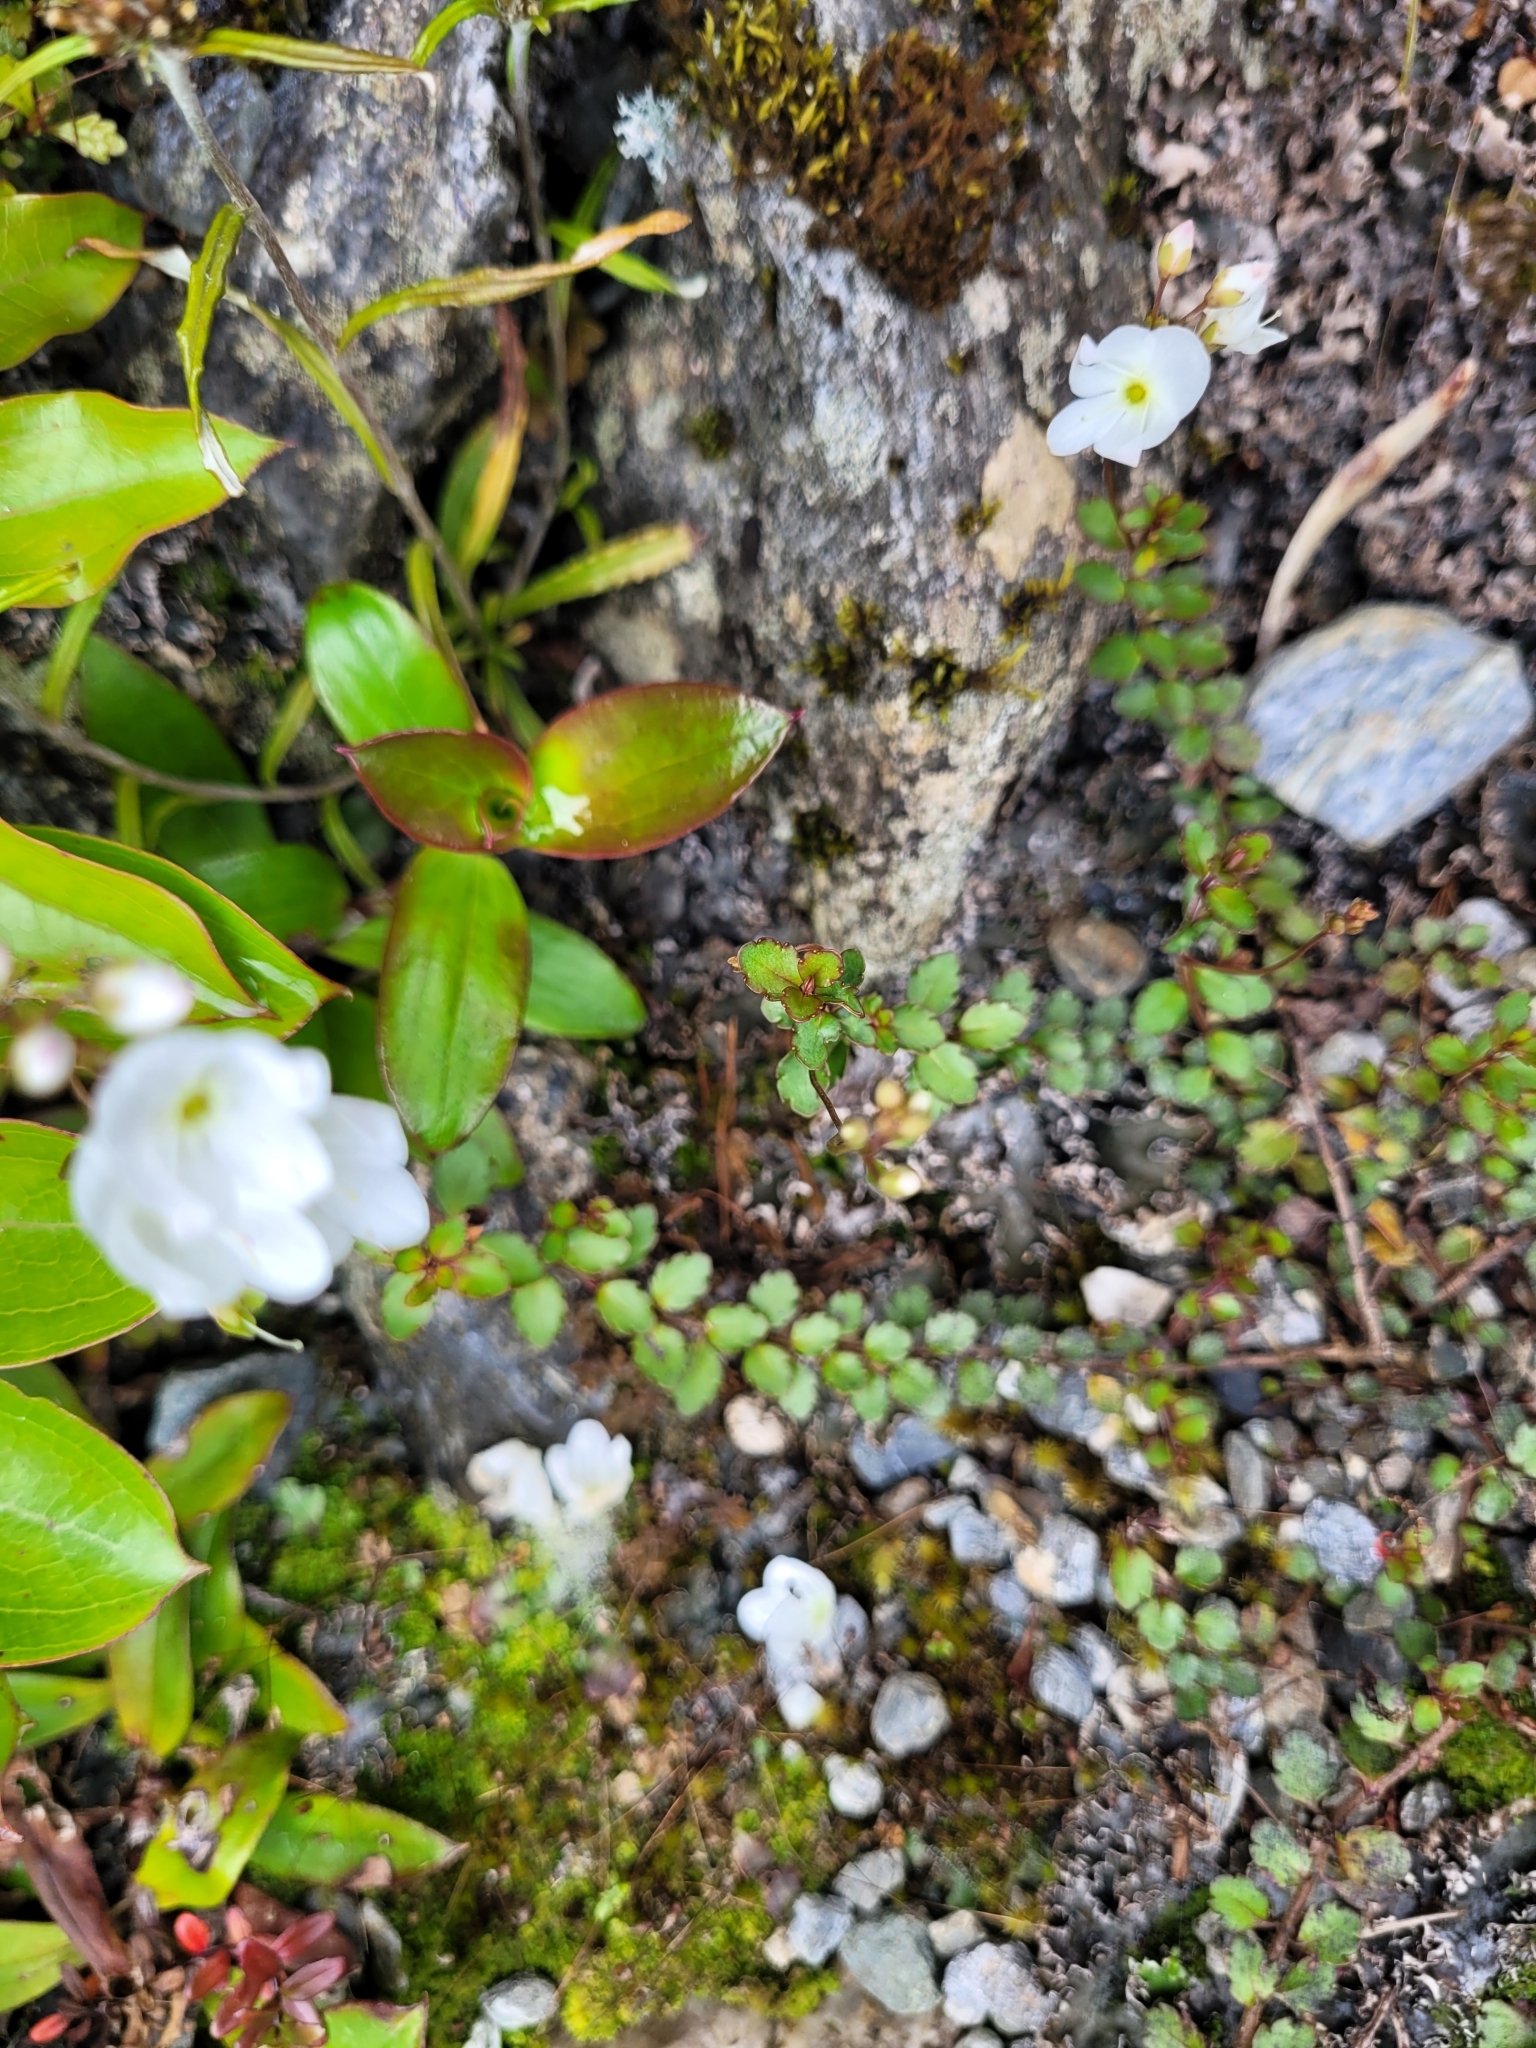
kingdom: Plantae
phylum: Tracheophyta
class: Magnoliopsida
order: Lamiales
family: Plantaginaceae
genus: Veronica
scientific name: Veronica lyallii
